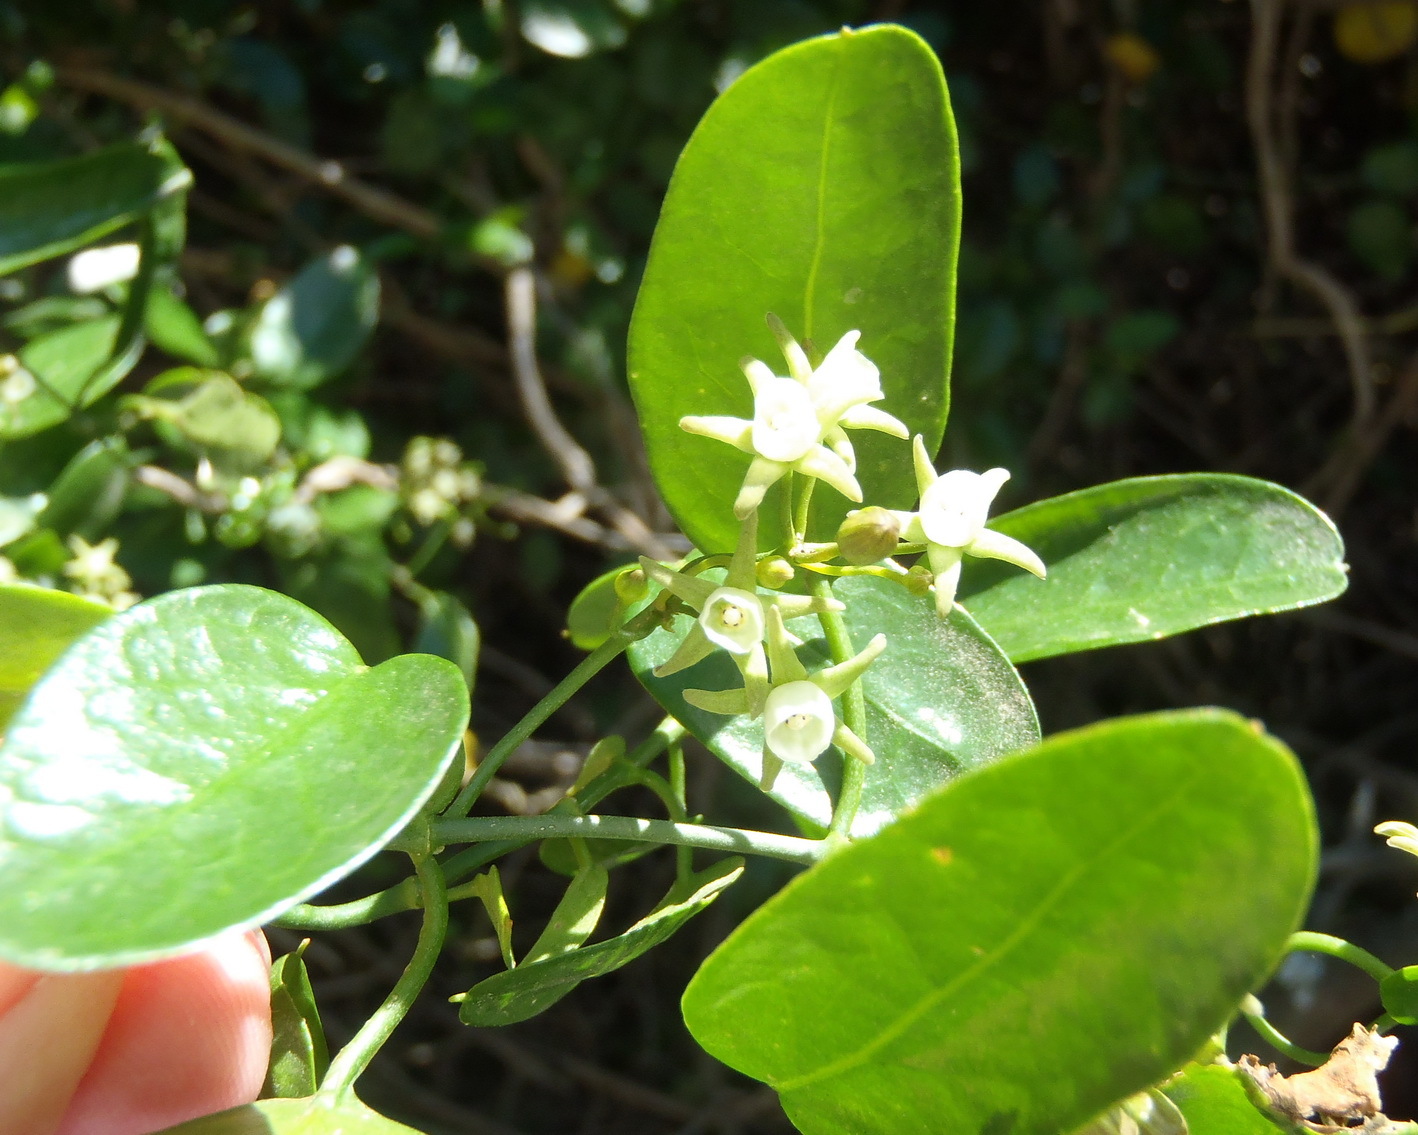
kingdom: Plantae
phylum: Tracheophyta
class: Magnoliopsida
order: Gentianales
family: Apocynaceae
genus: Cynanchum
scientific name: Cynanchum ellipticum
